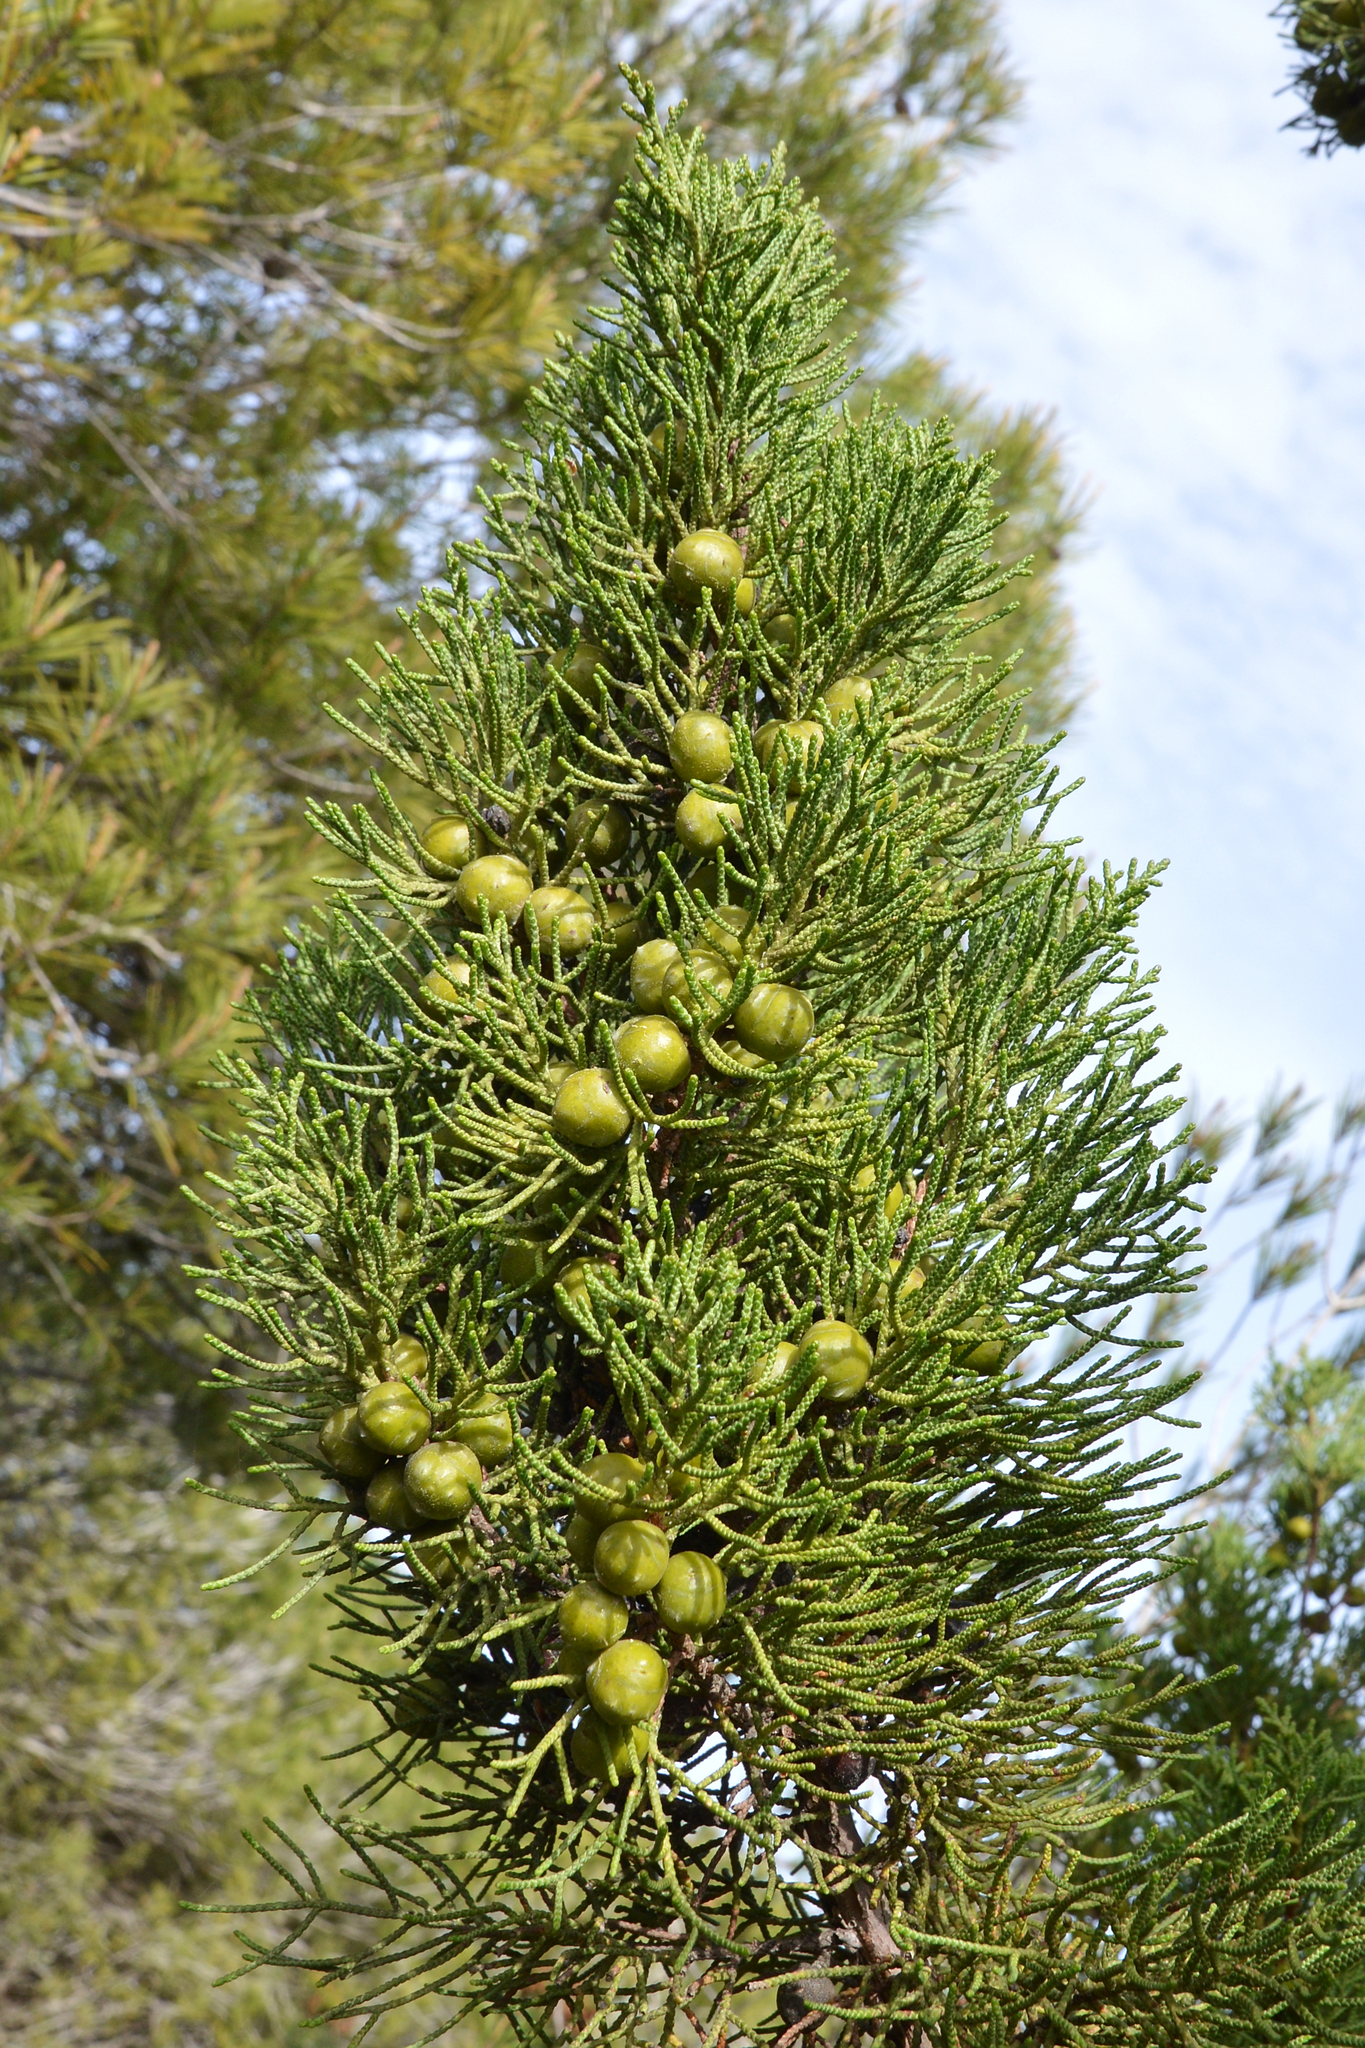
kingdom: Plantae
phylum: Tracheophyta
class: Pinopsida
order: Pinales
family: Cupressaceae
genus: Juniperus
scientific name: Juniperus phoenicea
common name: Phoenician juniper
